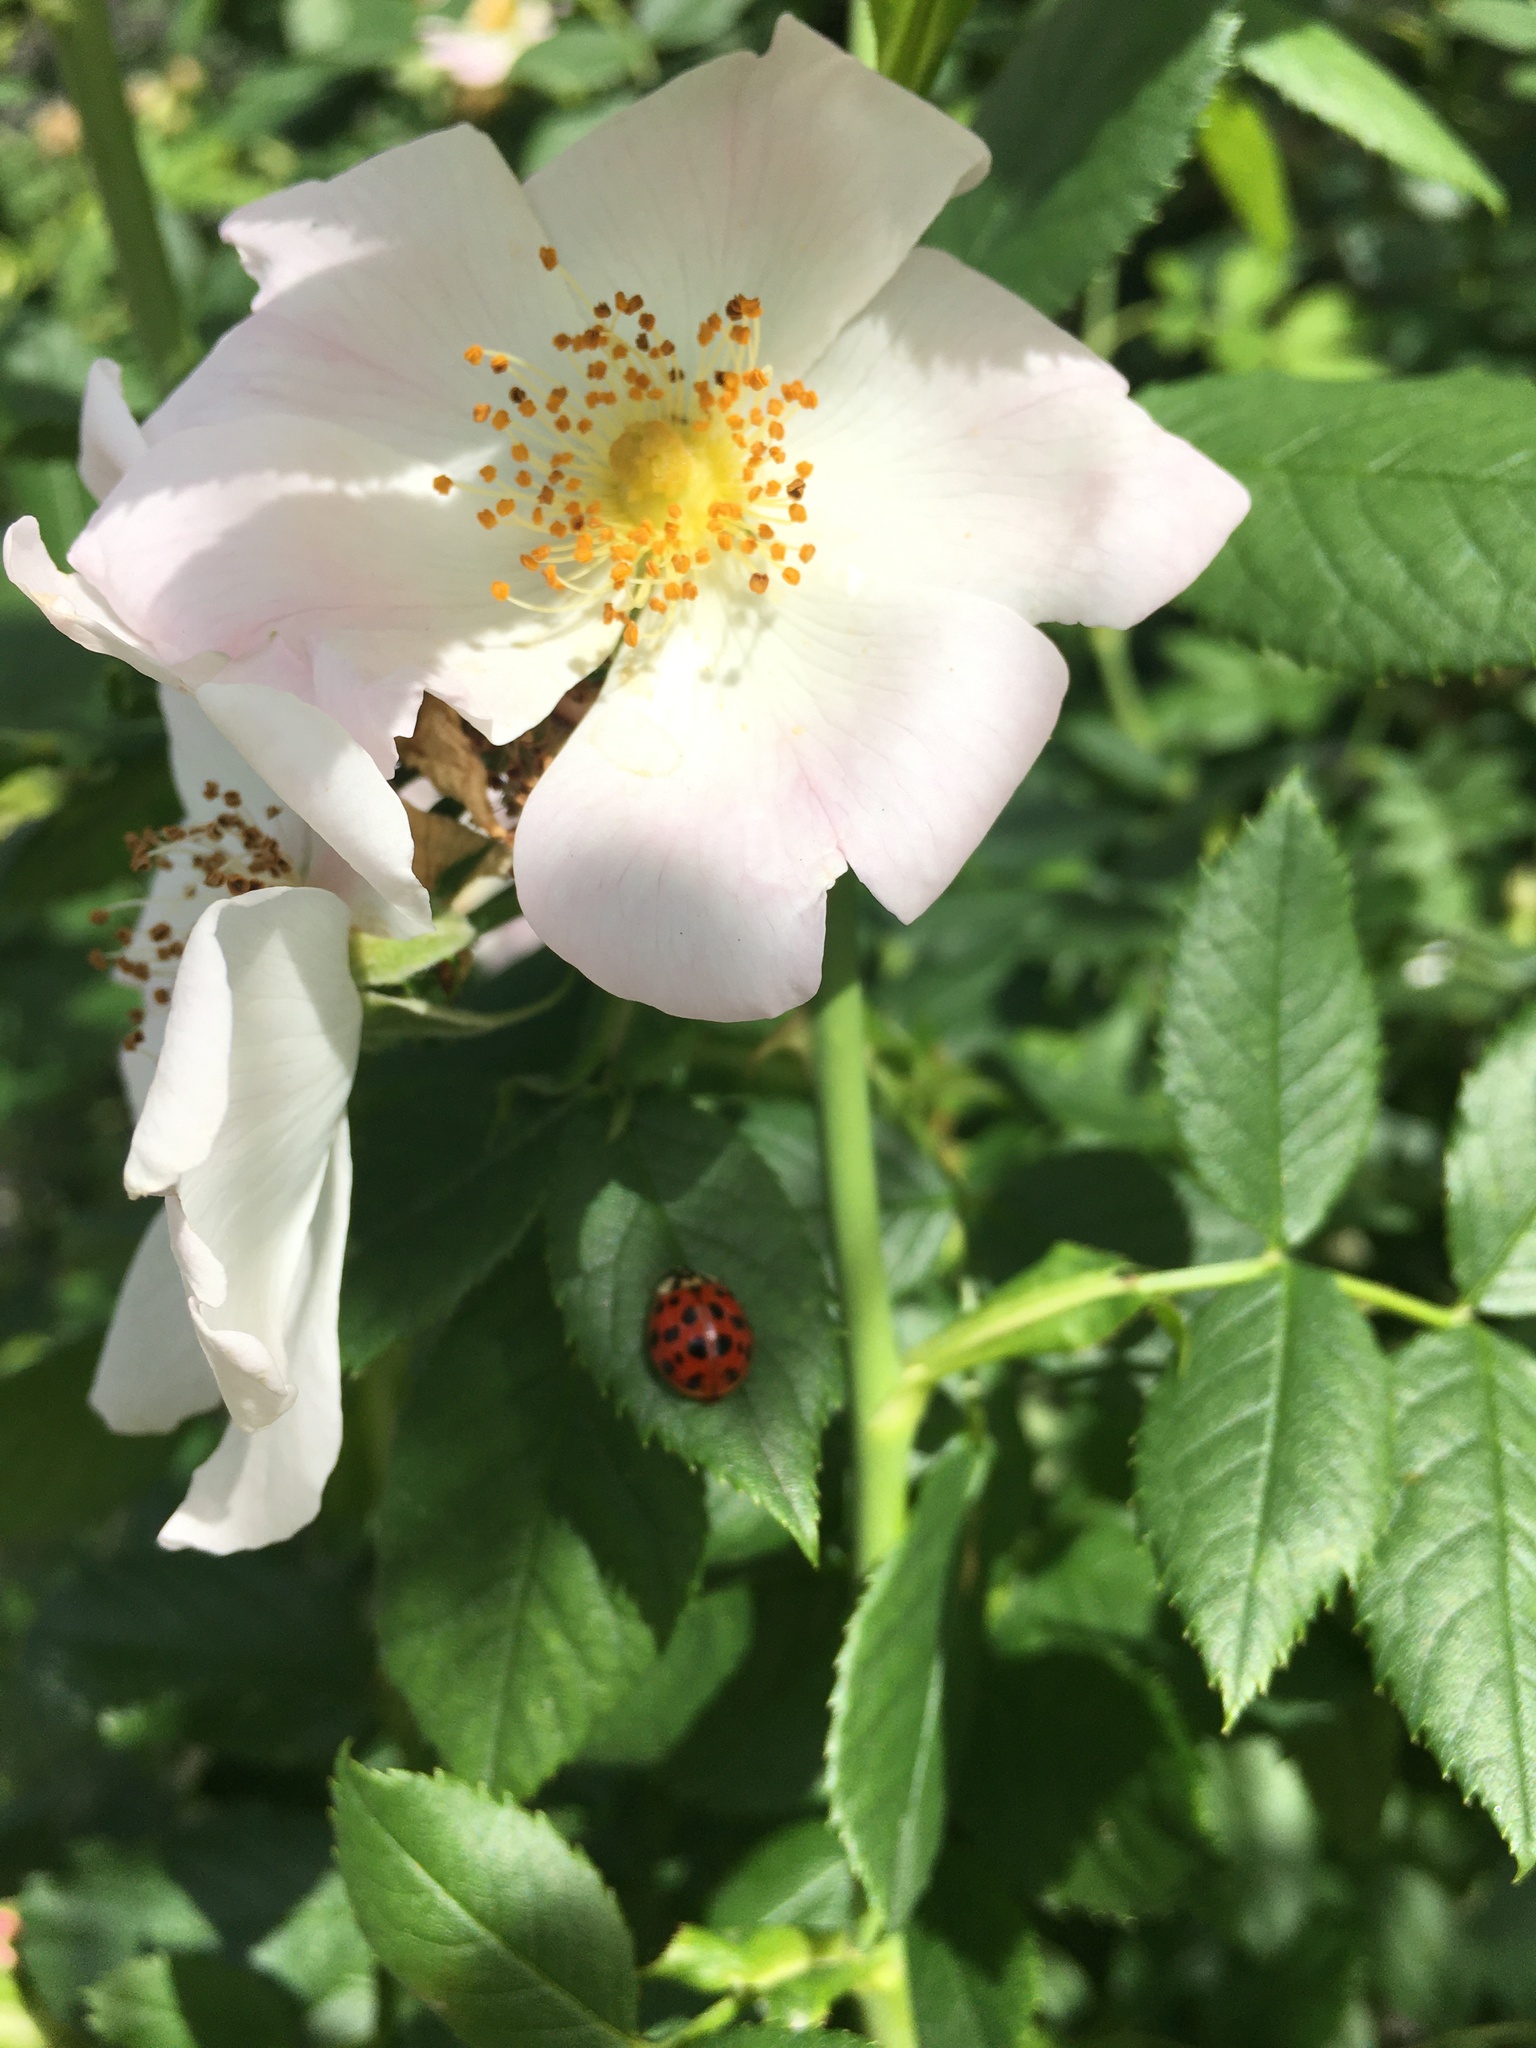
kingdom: Animalia
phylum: Arthropoda
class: Insecta
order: Coleoptera
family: Coccinellidae
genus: Harmonia
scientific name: Harmonia axyridis
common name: Harlequin ladybird
